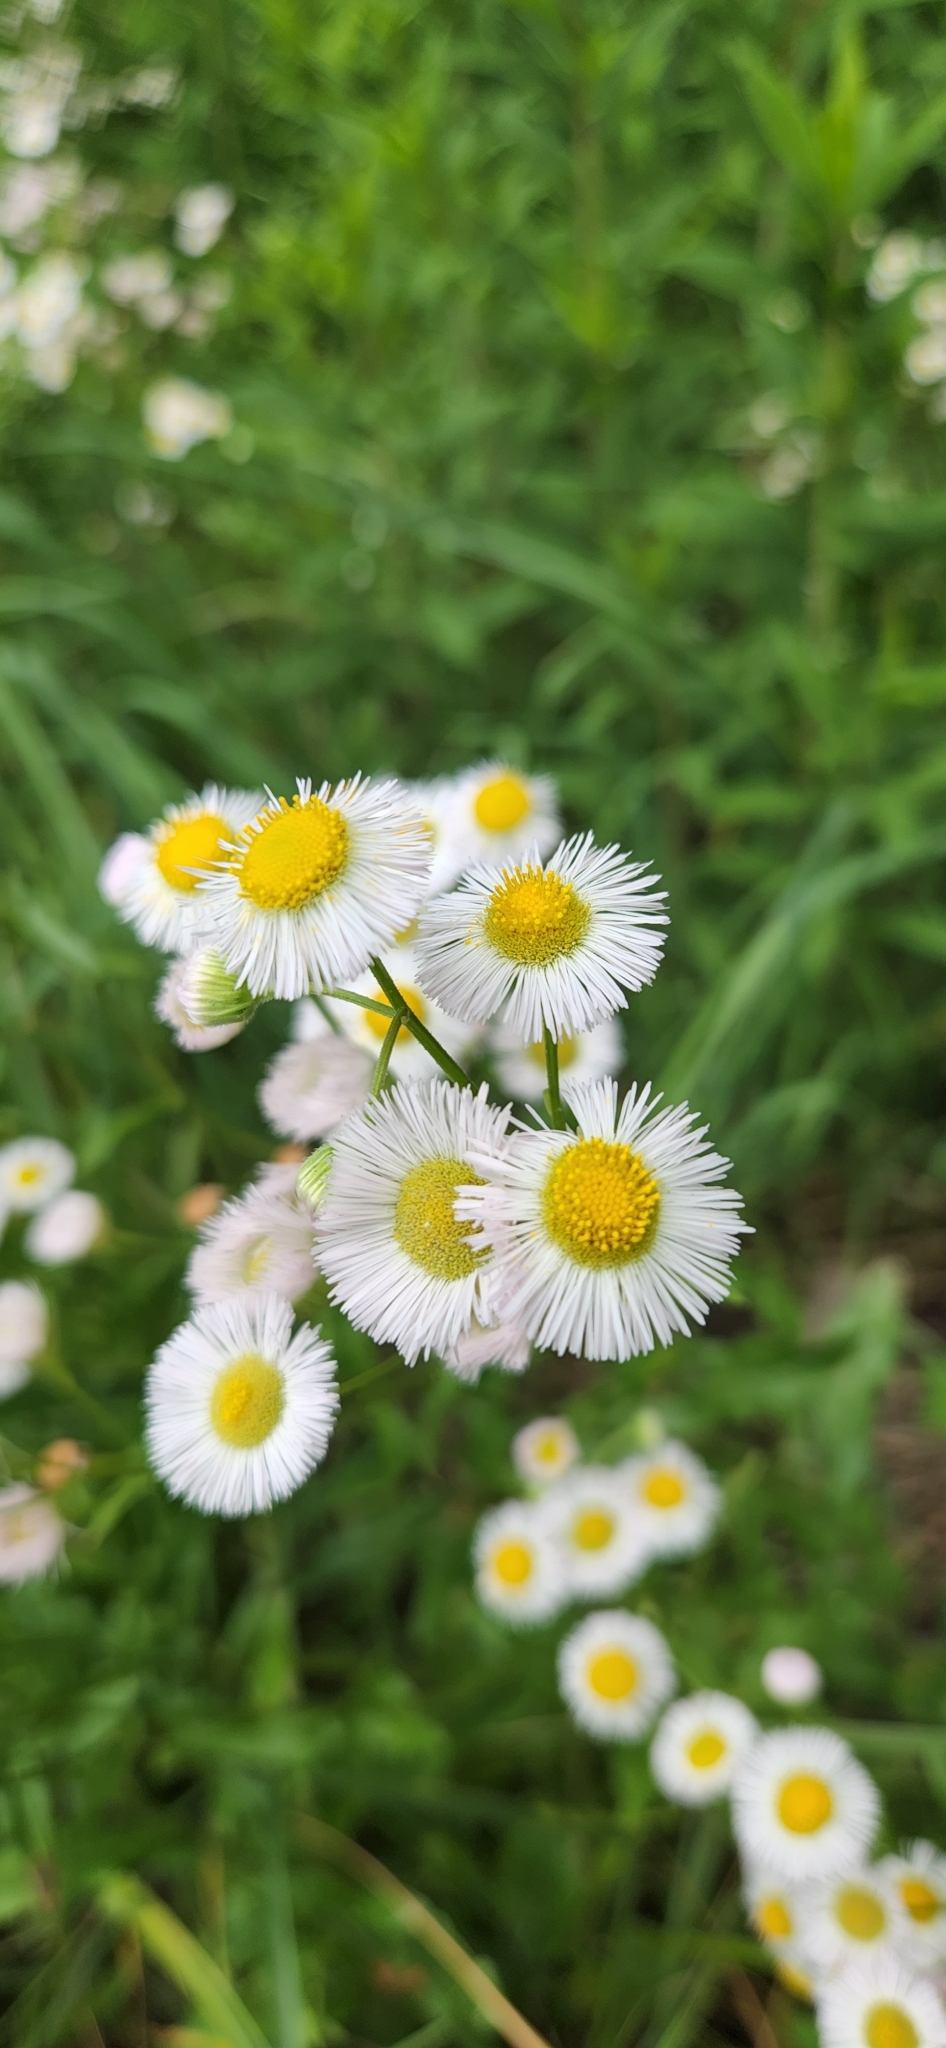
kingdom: Plantae
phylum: Tracheophyta
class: Magnoliopsida
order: Asterales
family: Asteraceae
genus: Erigeron
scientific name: Erigeron philadelphicus
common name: Robin's-plantain
